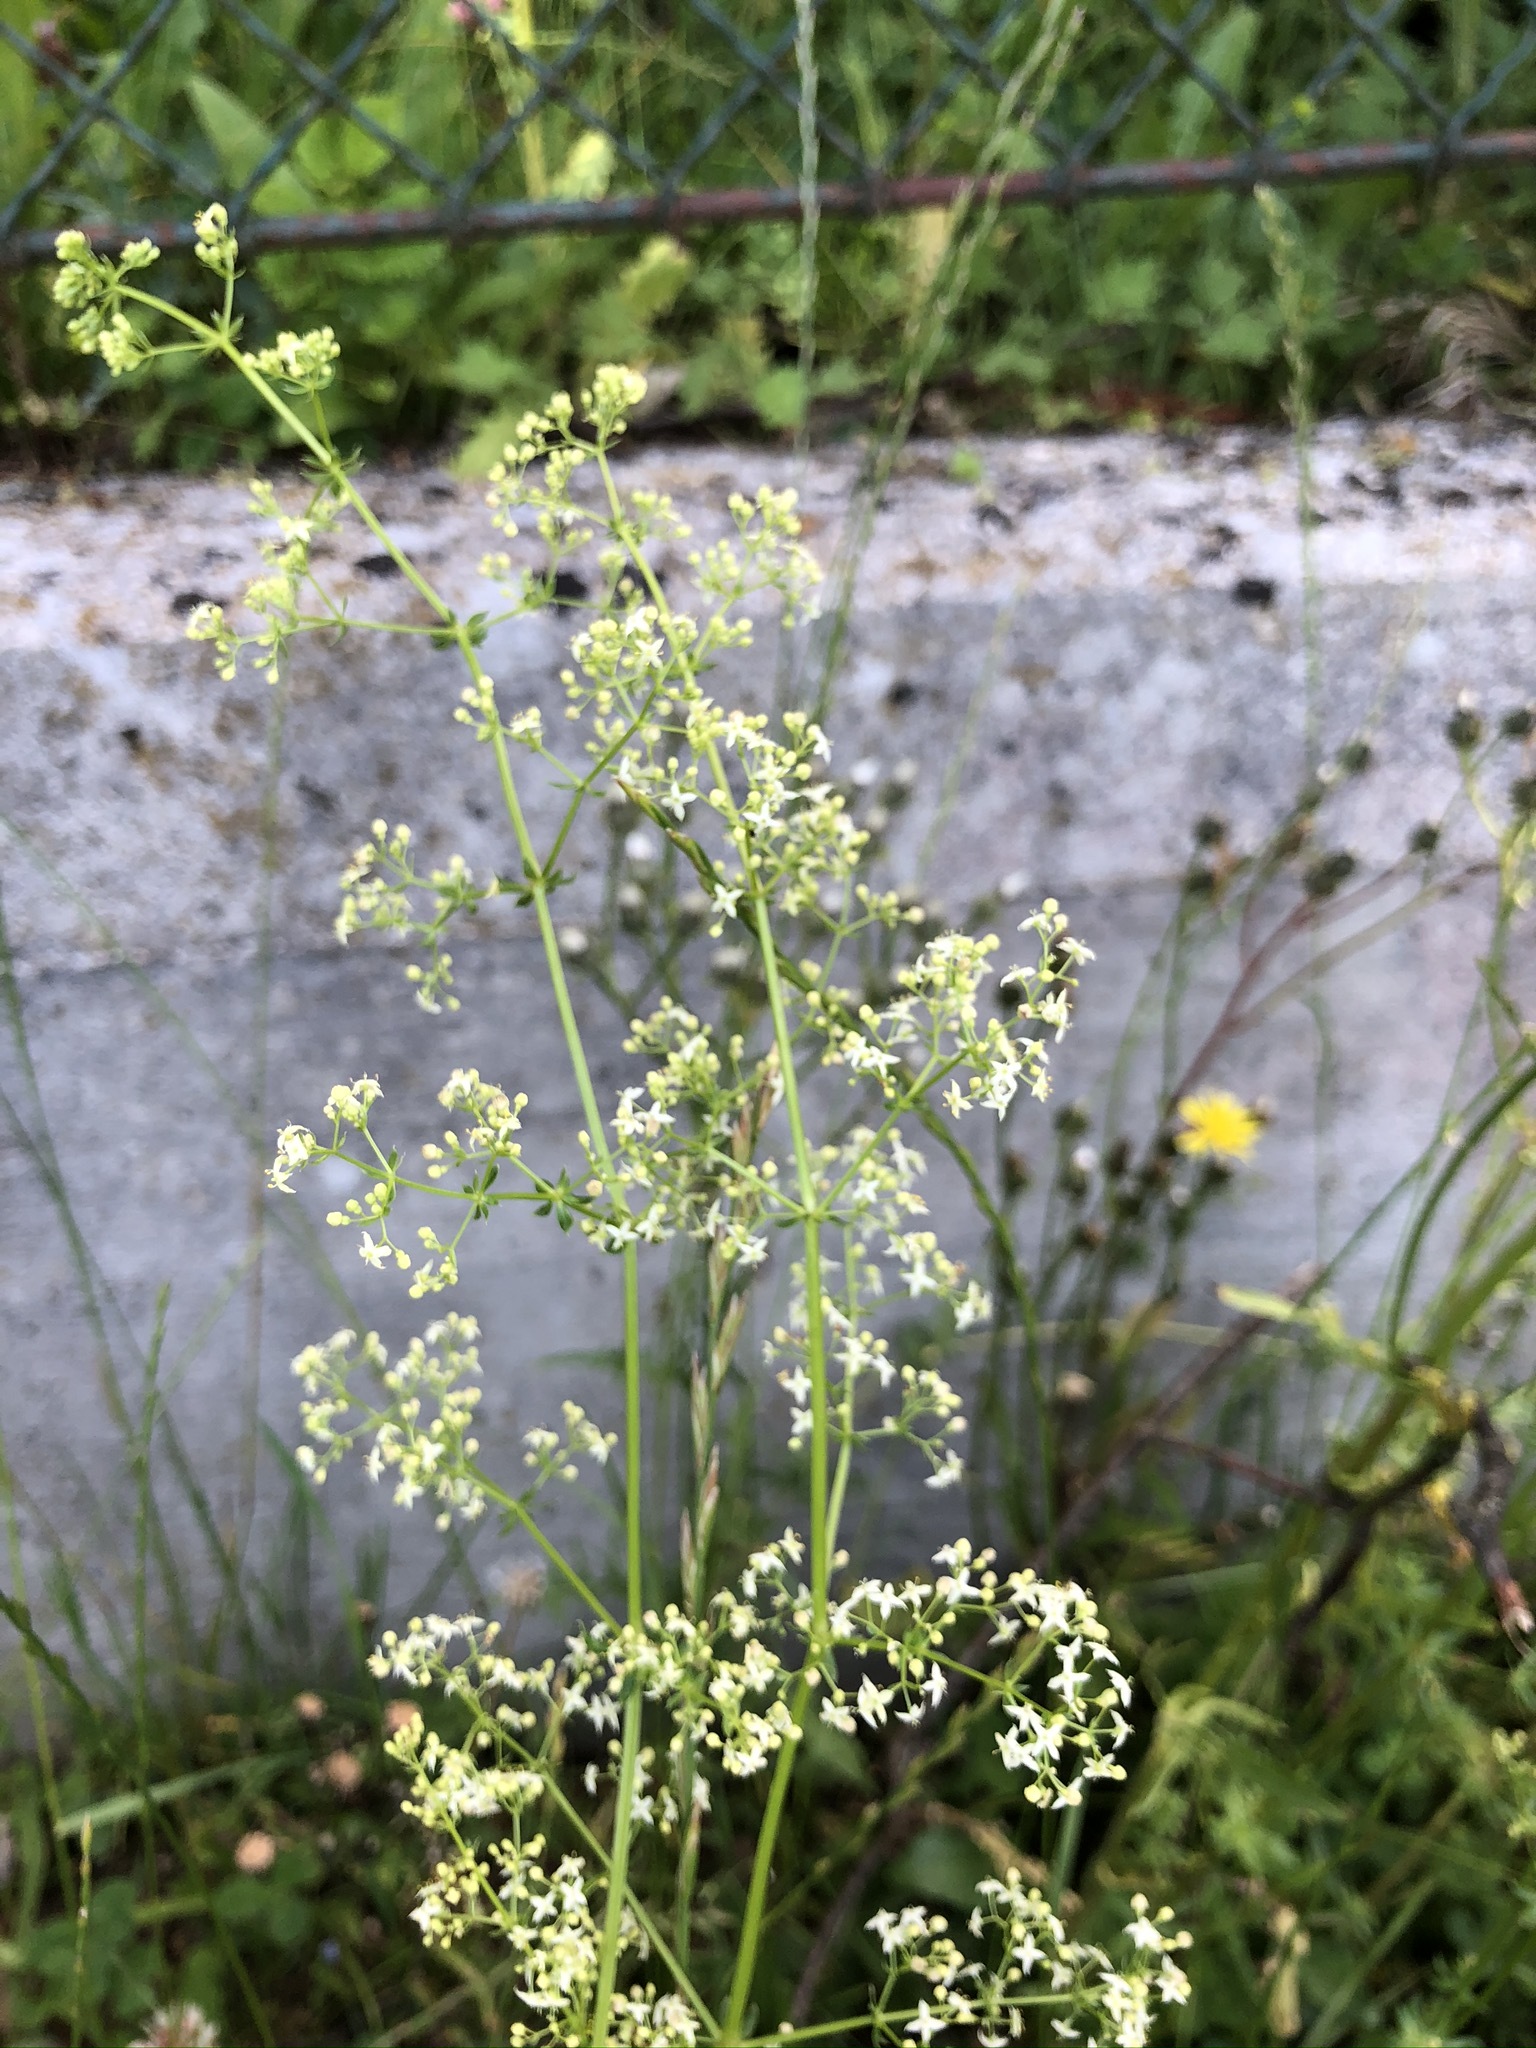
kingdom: Plantae
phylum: Tracheophyta
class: Magnoliopsida
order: Gentianales
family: Rubiaceae
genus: Galium
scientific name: Galium album
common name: White bedstraw
